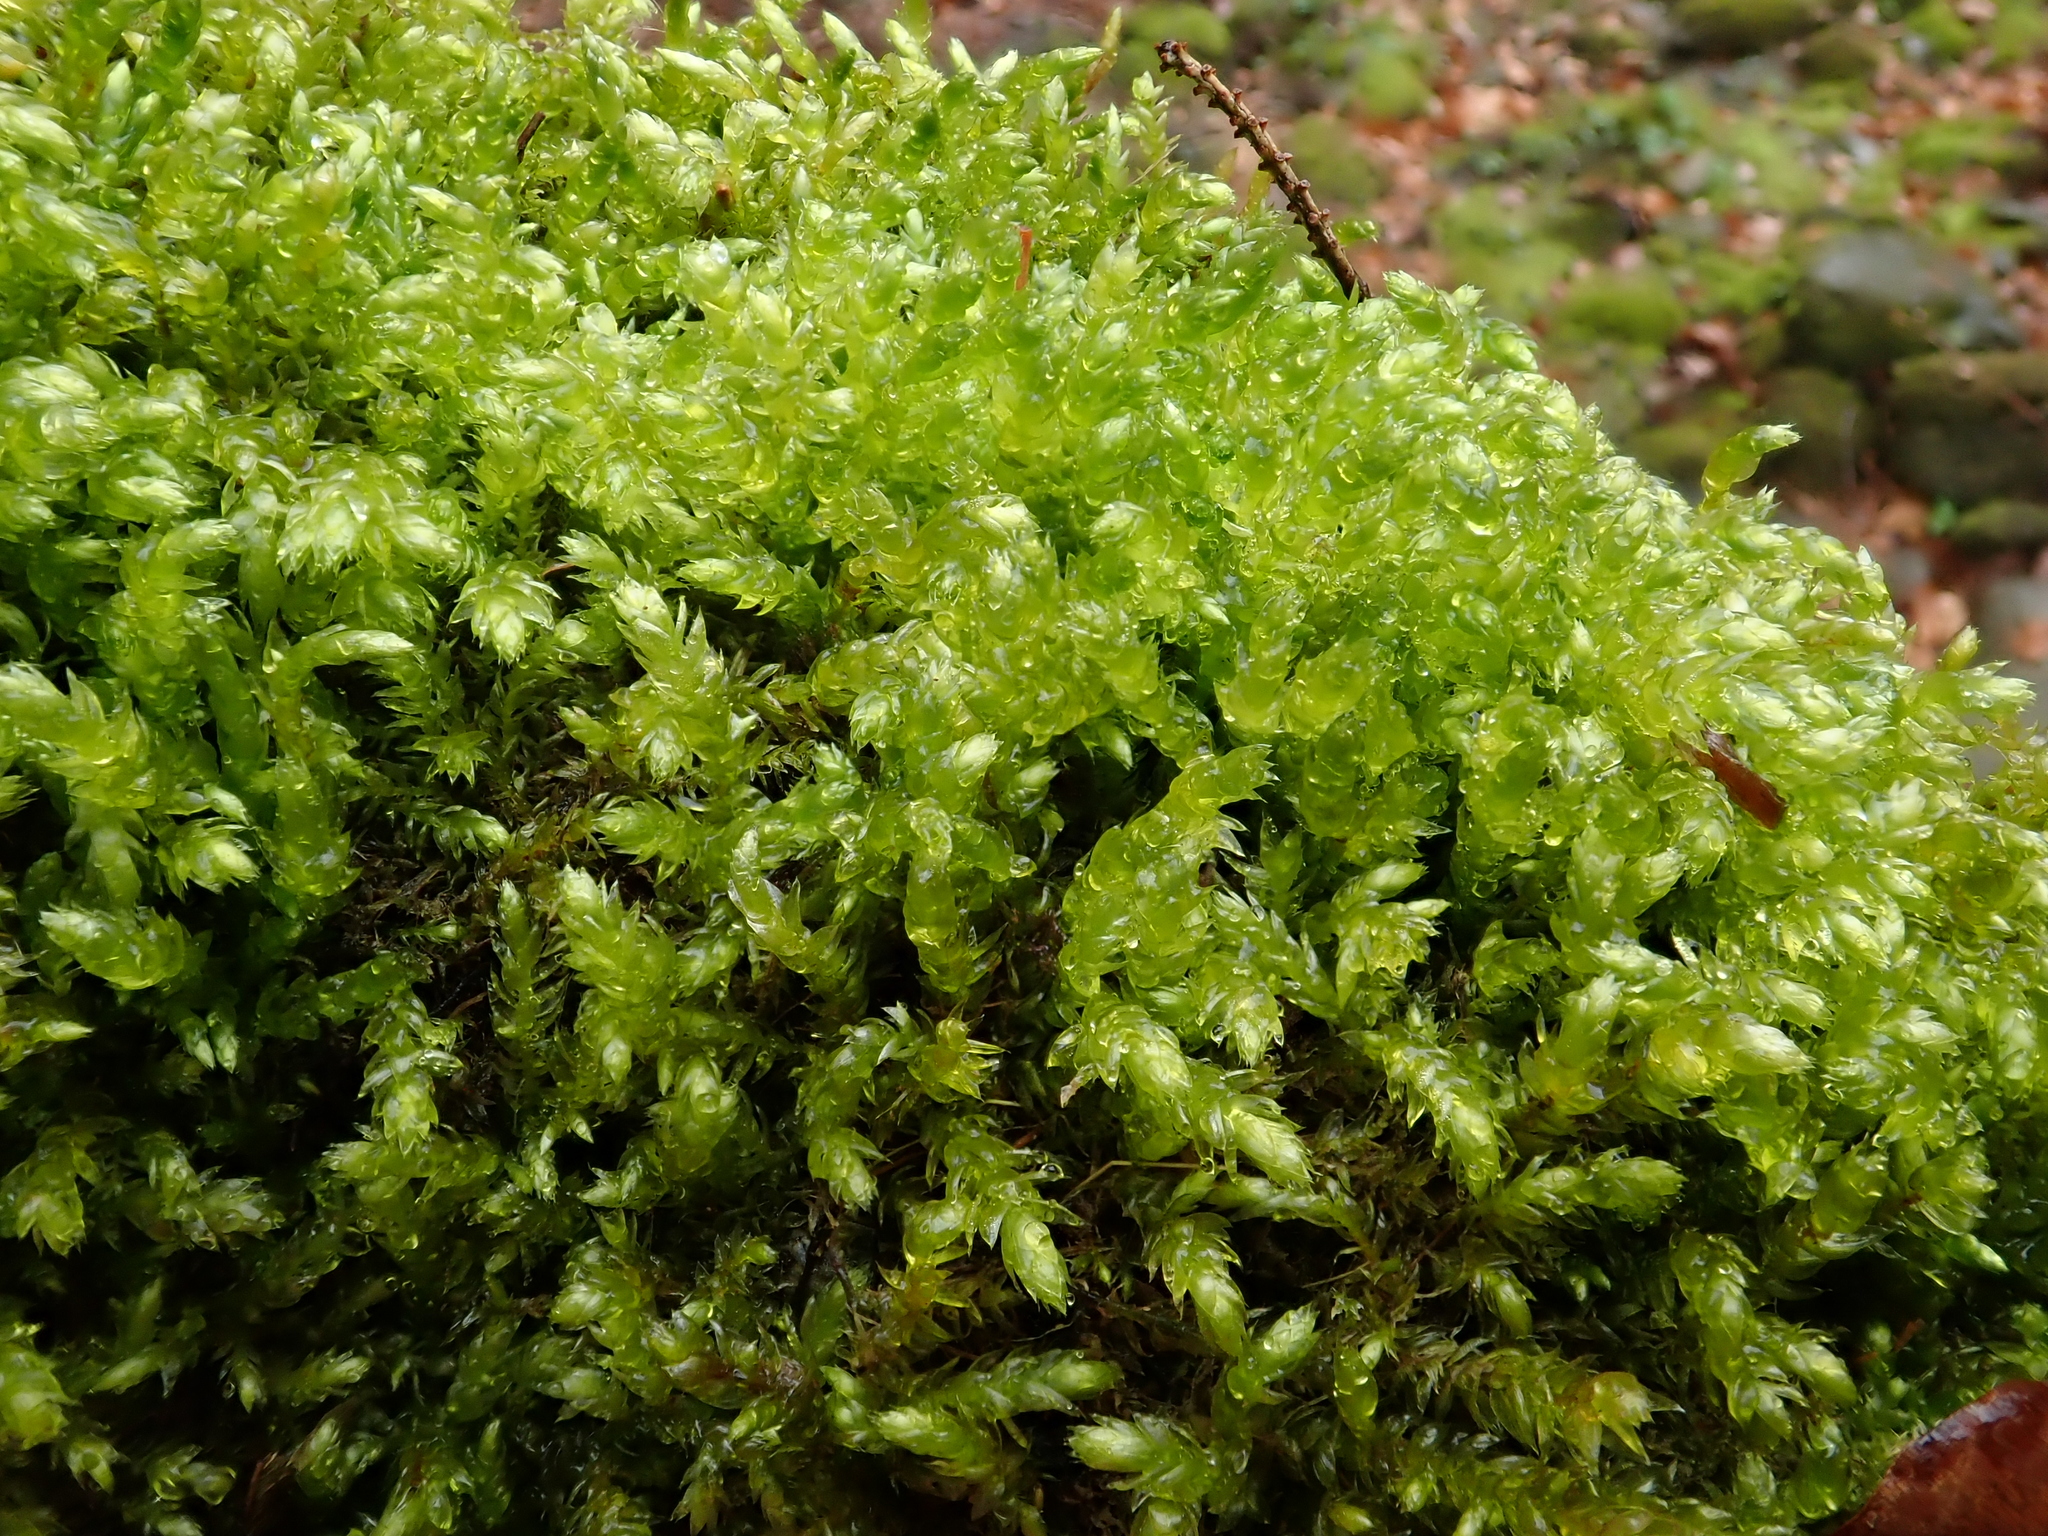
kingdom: Plantae
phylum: Bryophyta
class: Bryopsida
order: Hypnales
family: Brachytheciaceae
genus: Brachythecium
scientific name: Brachythecium rivulare
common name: River ragged moss
